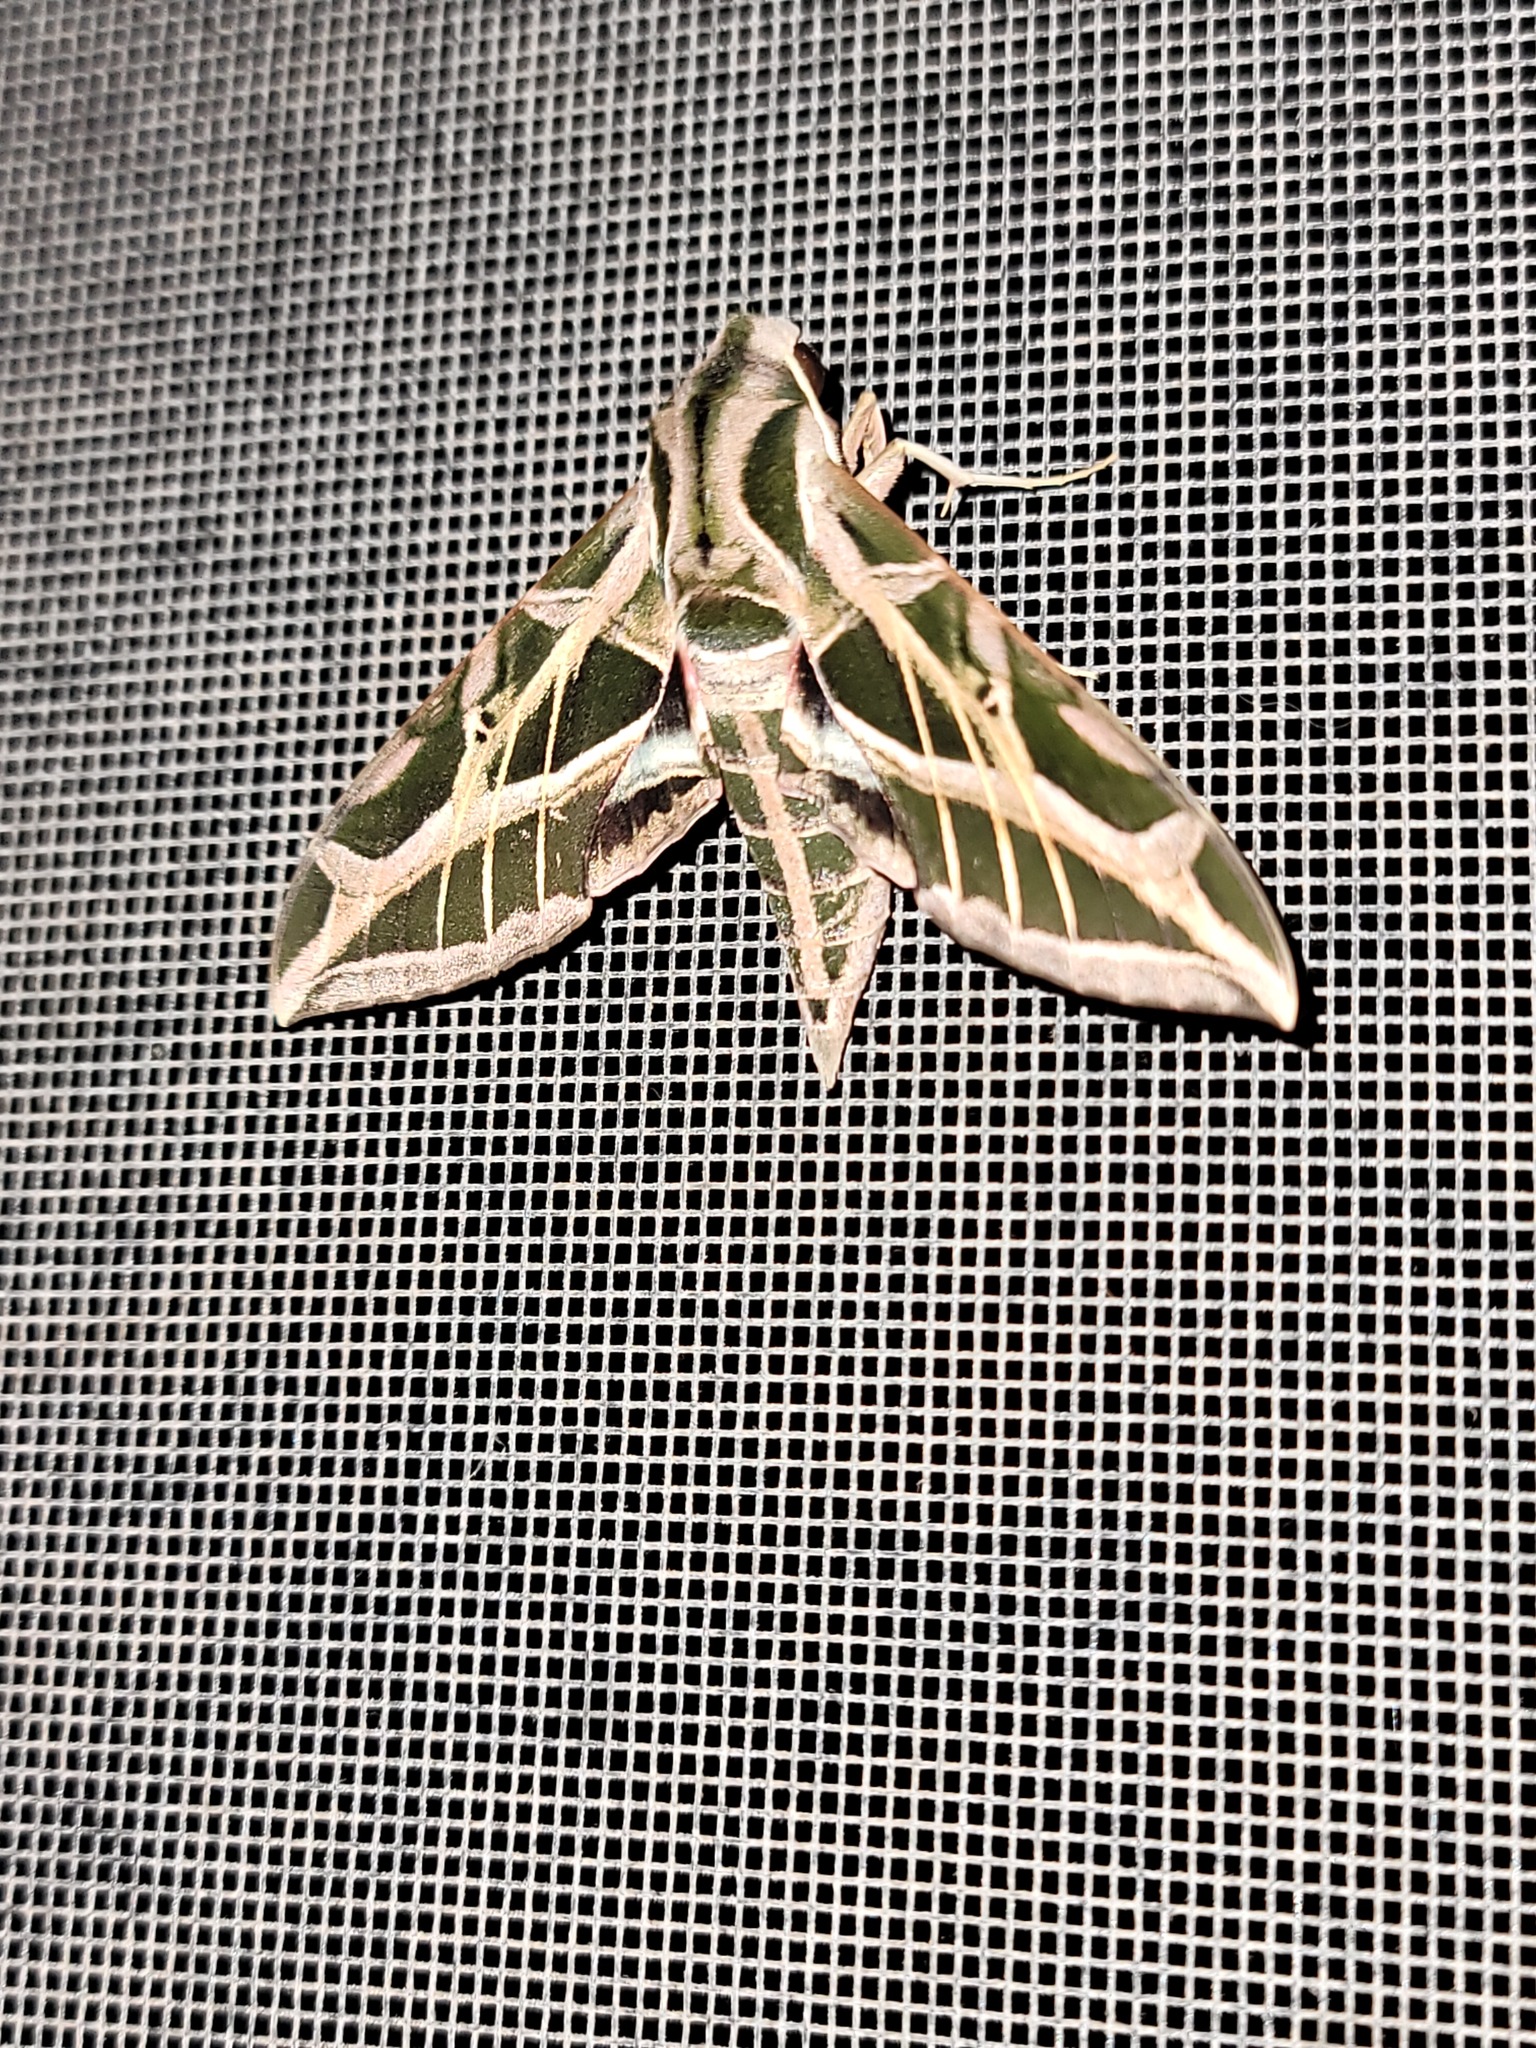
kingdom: Animalia
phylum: Arthropoda
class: Insecta
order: Lepidoptera
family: Sphingidae
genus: Eumorpha
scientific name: Eumorpha vitis
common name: Vine sphinx
